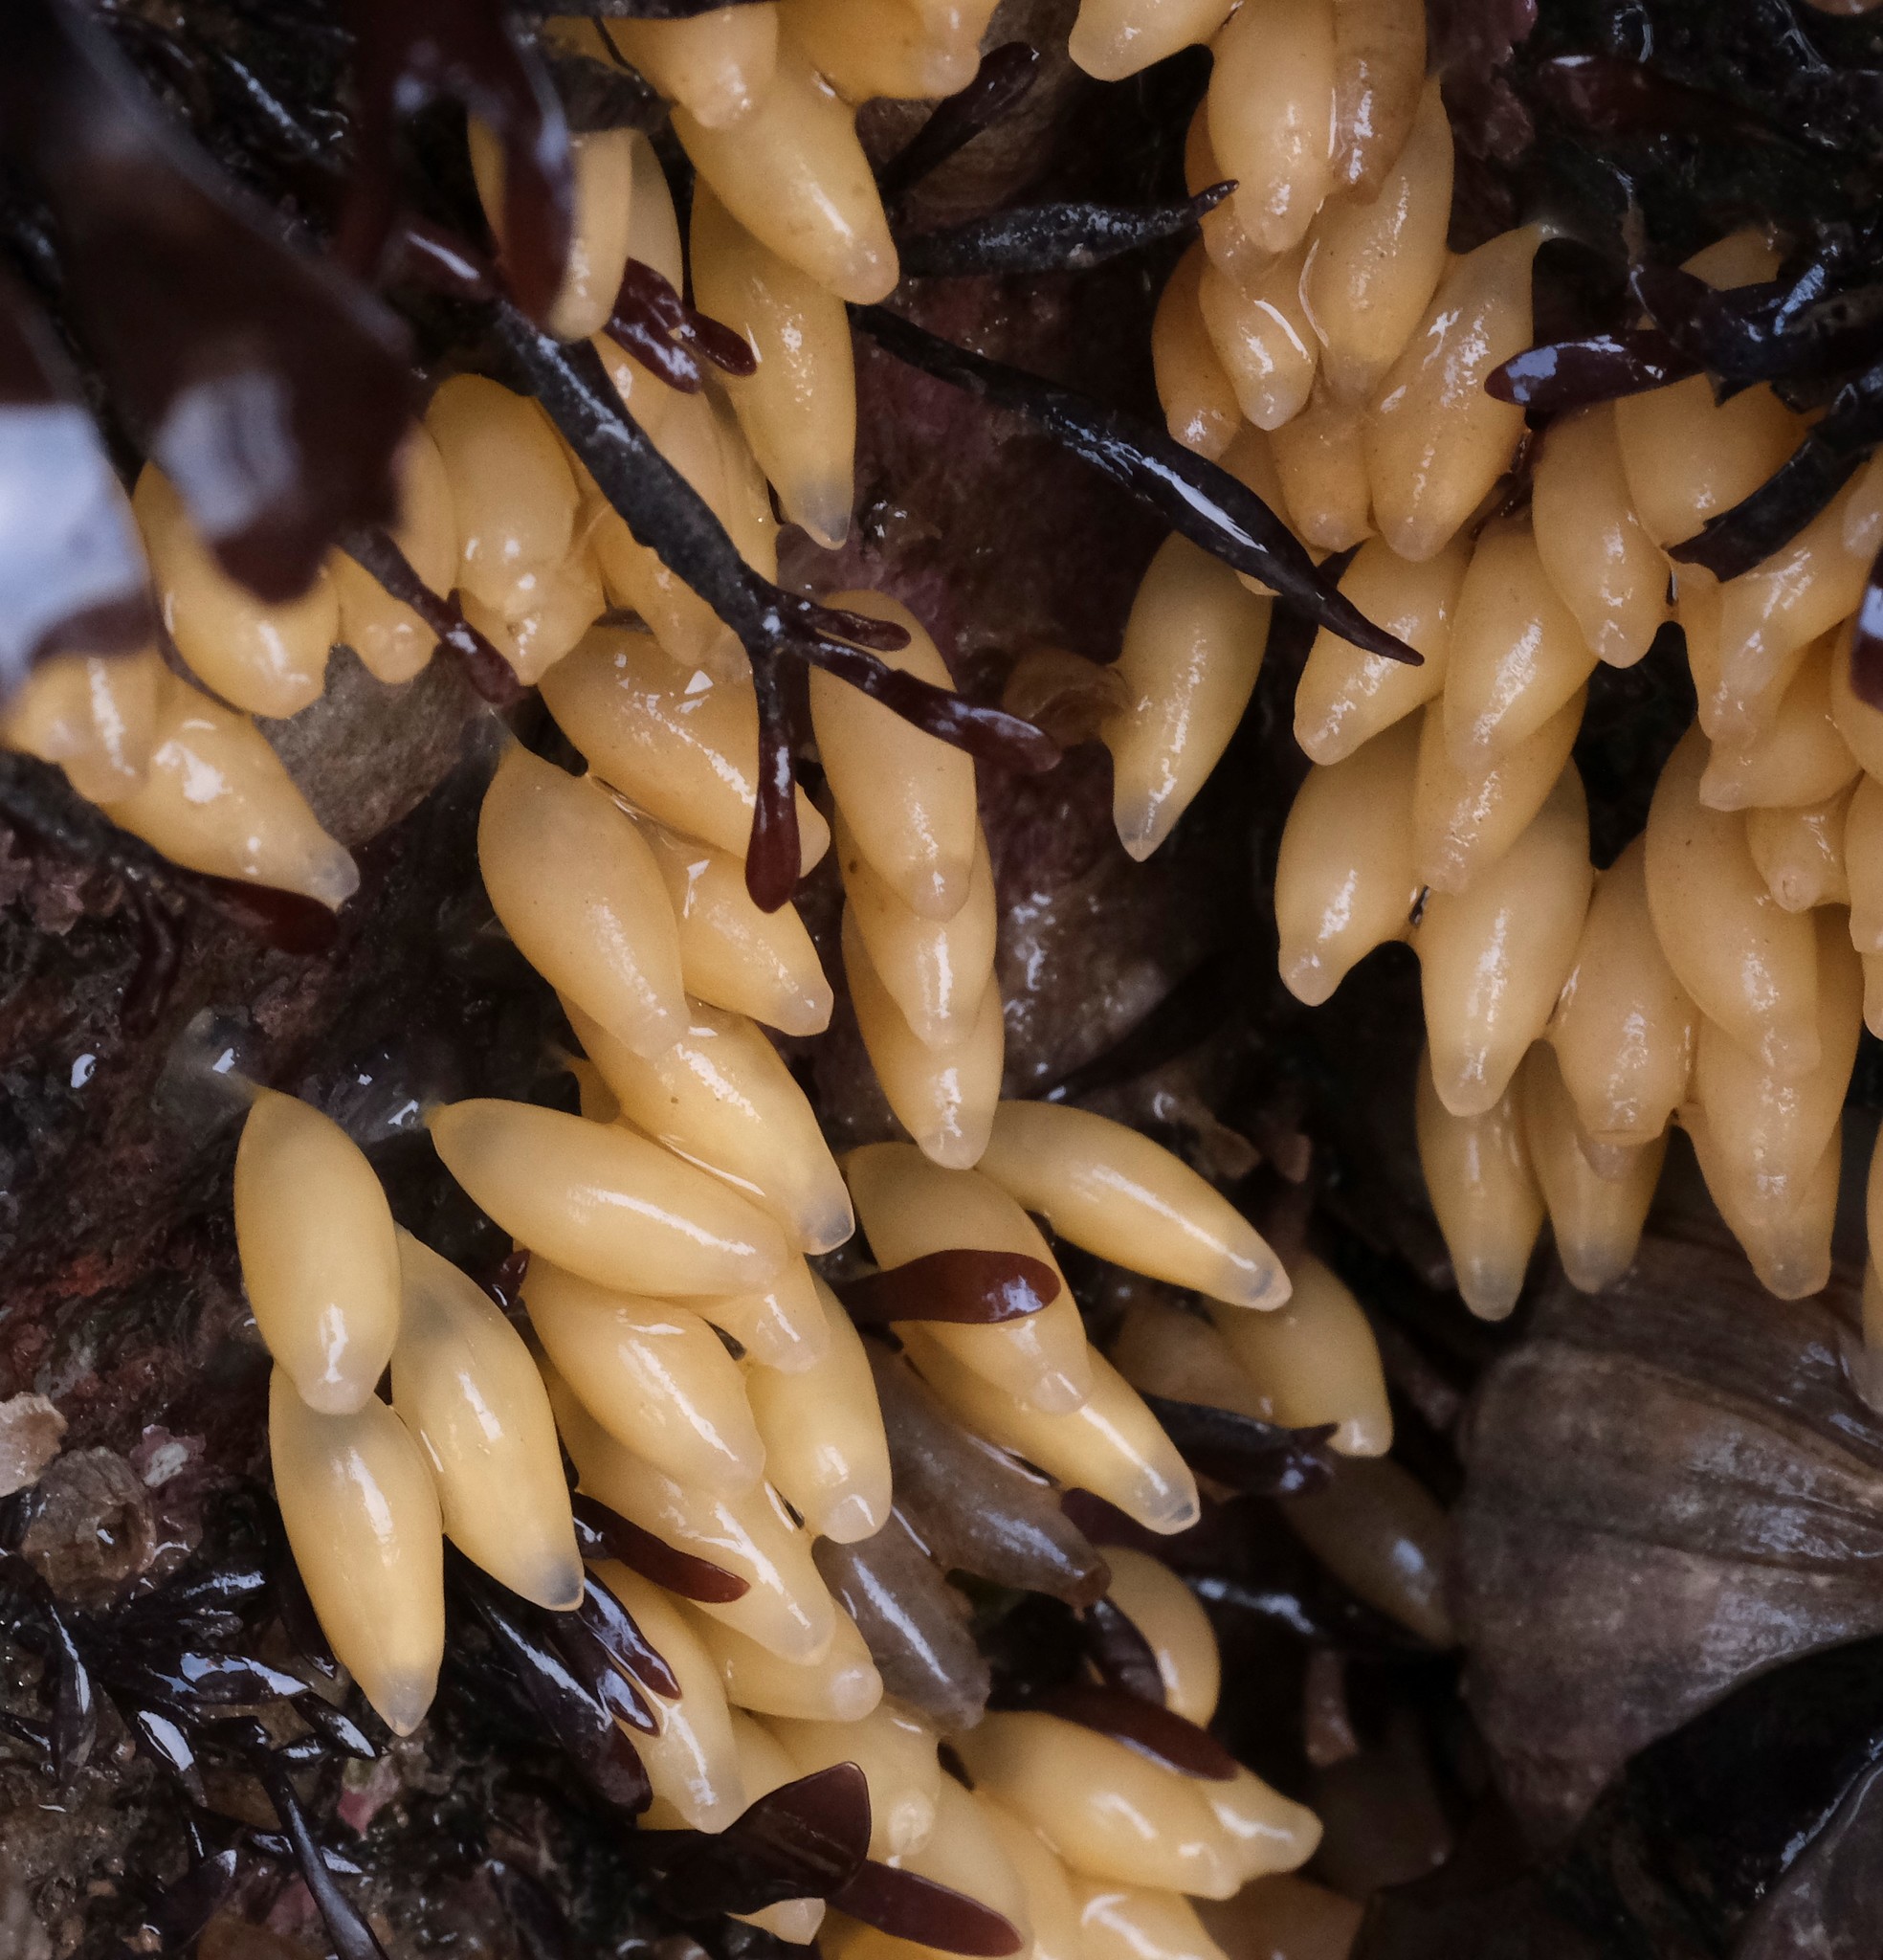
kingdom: Animalia
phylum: Mollusca
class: Gastropoda
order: Neogastropoda
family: Muricidae
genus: Nucella
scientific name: Nucella lapillus
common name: Dog whelk
